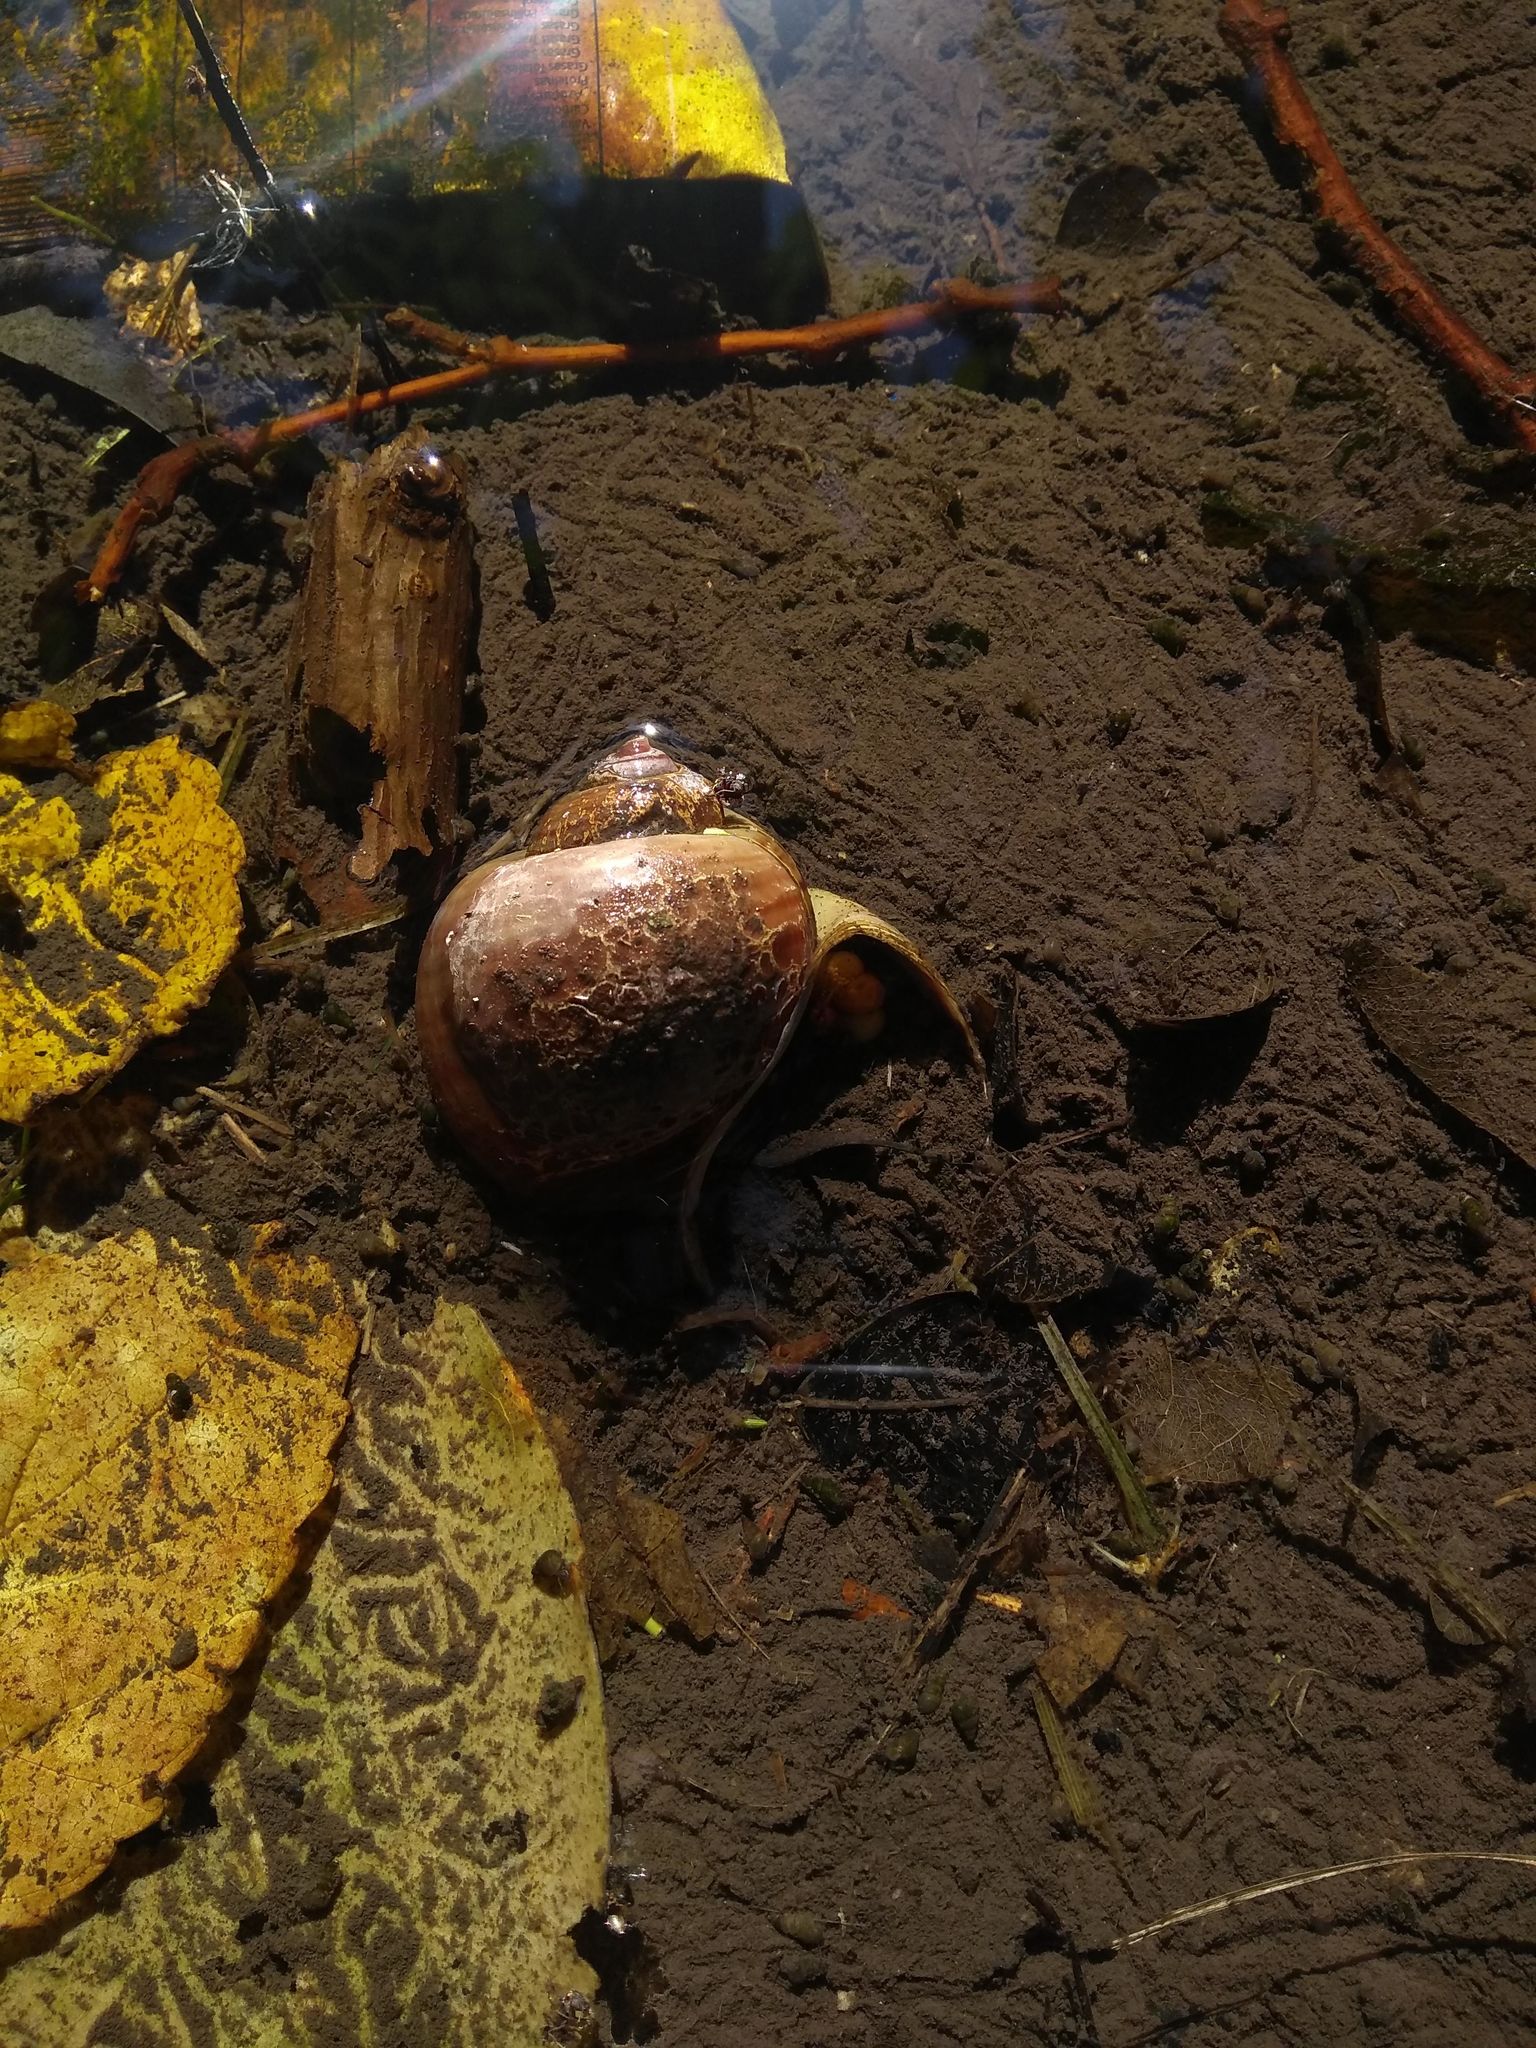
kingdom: Animalia
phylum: Mollusca
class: Gastropoda
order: Architaenioglossa
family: Ampullariidae
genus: Pomacea
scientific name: Pomacea canaliculata
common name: Channeled applesnail
